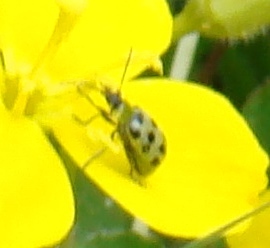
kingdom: Animalia
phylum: Arthropoda
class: Insecta
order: Coleoptera
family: Chrysomelidae
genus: Diabrotica
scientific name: Diabrotica undecimpunctata
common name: Spotted cucumber beetle
